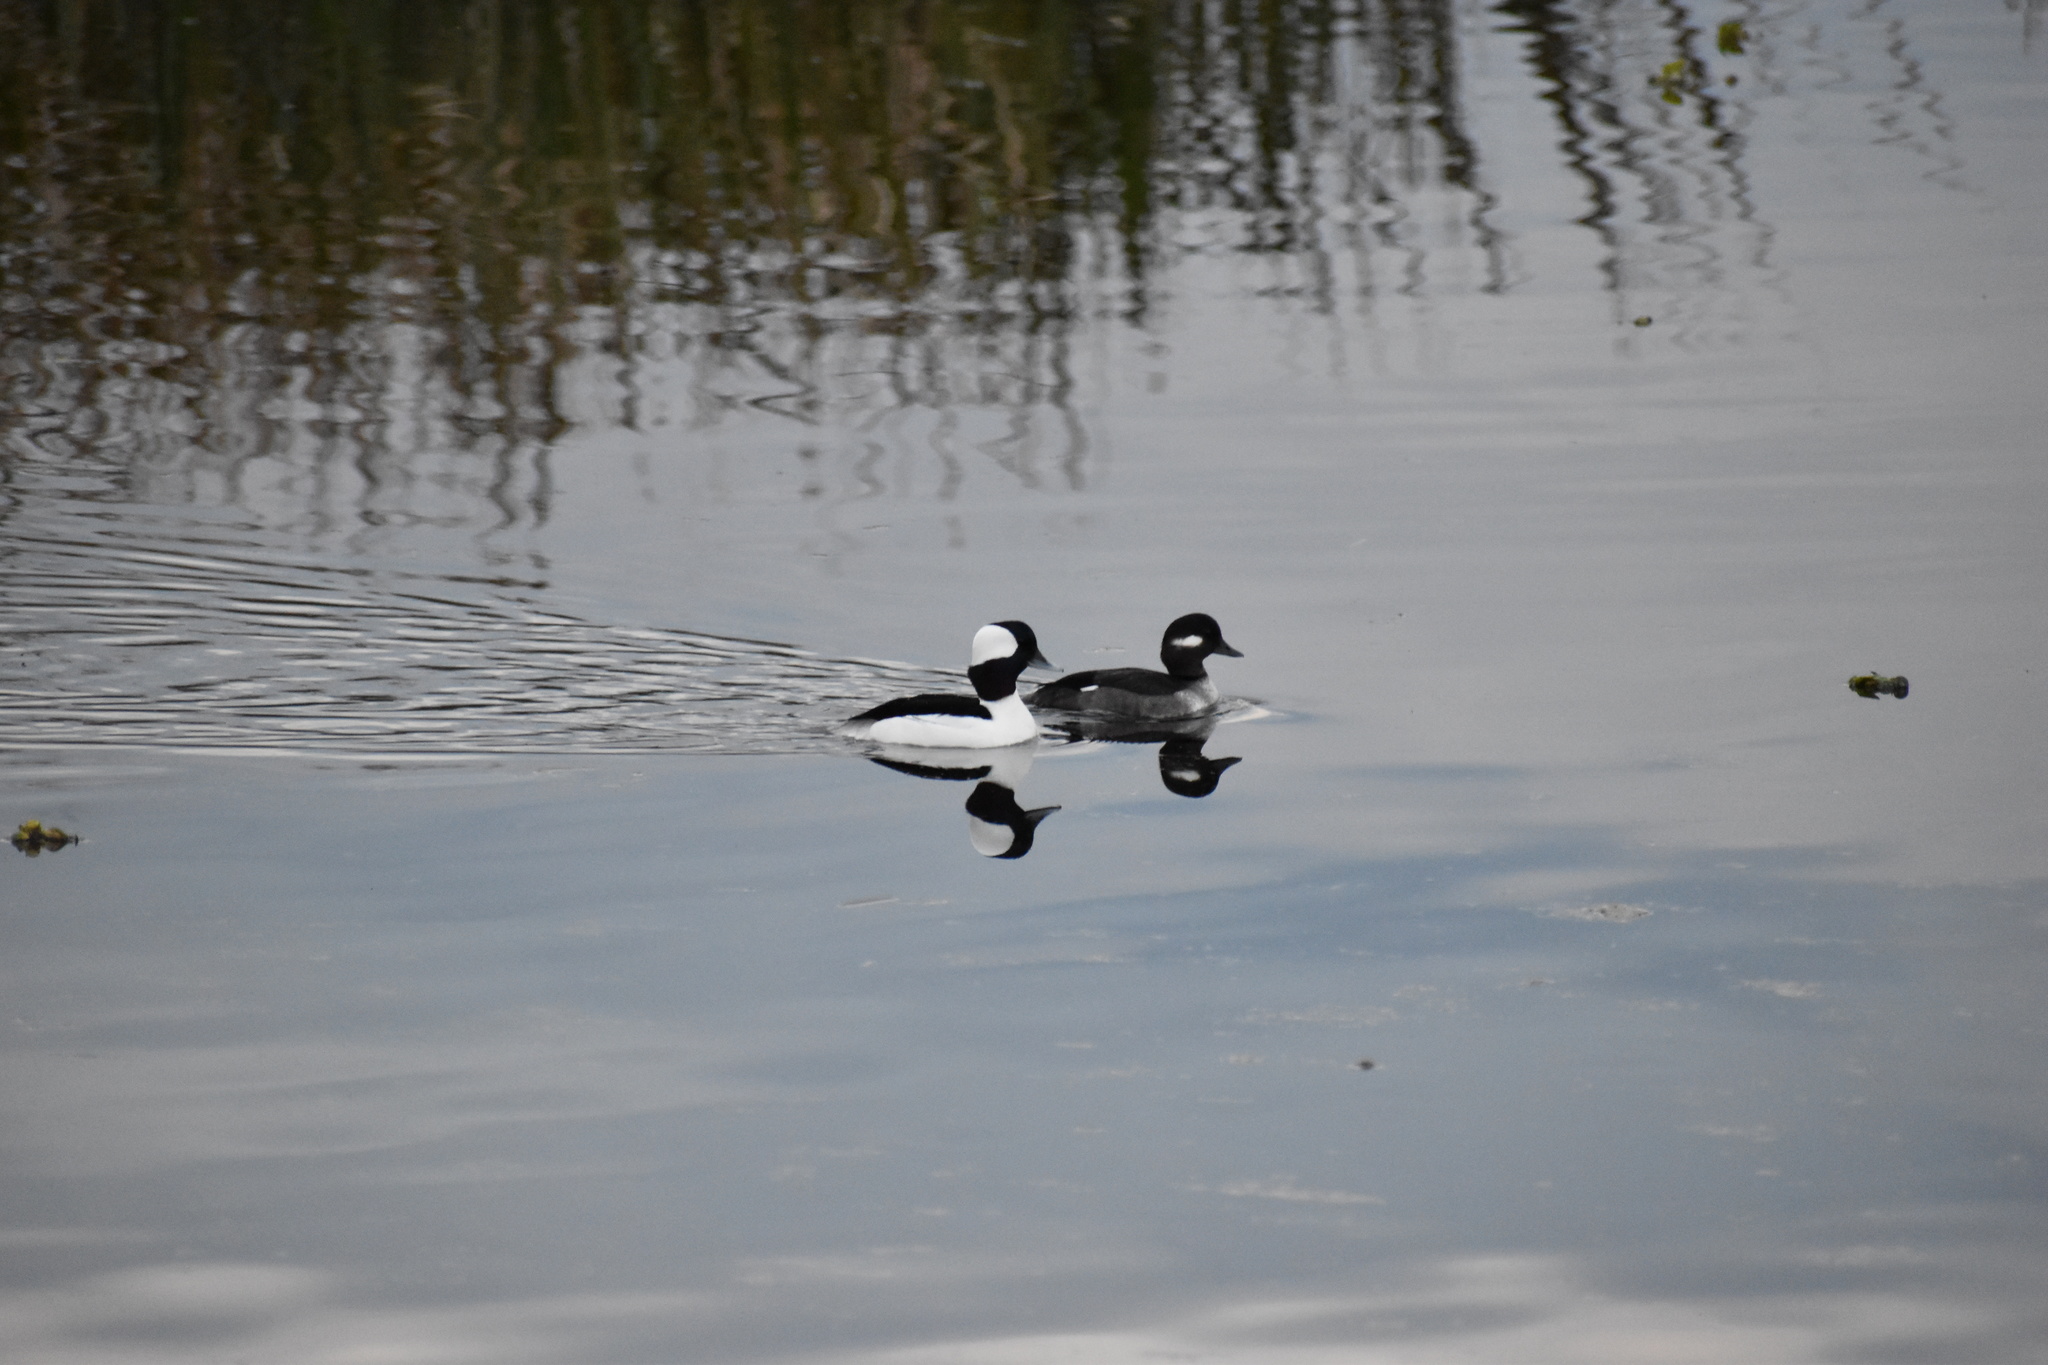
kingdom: Animalia
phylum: Chordata
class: Aves
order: Anseriformes
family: Anatidae
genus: Bucephala
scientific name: Bucephala albeola
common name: Bufflehead
